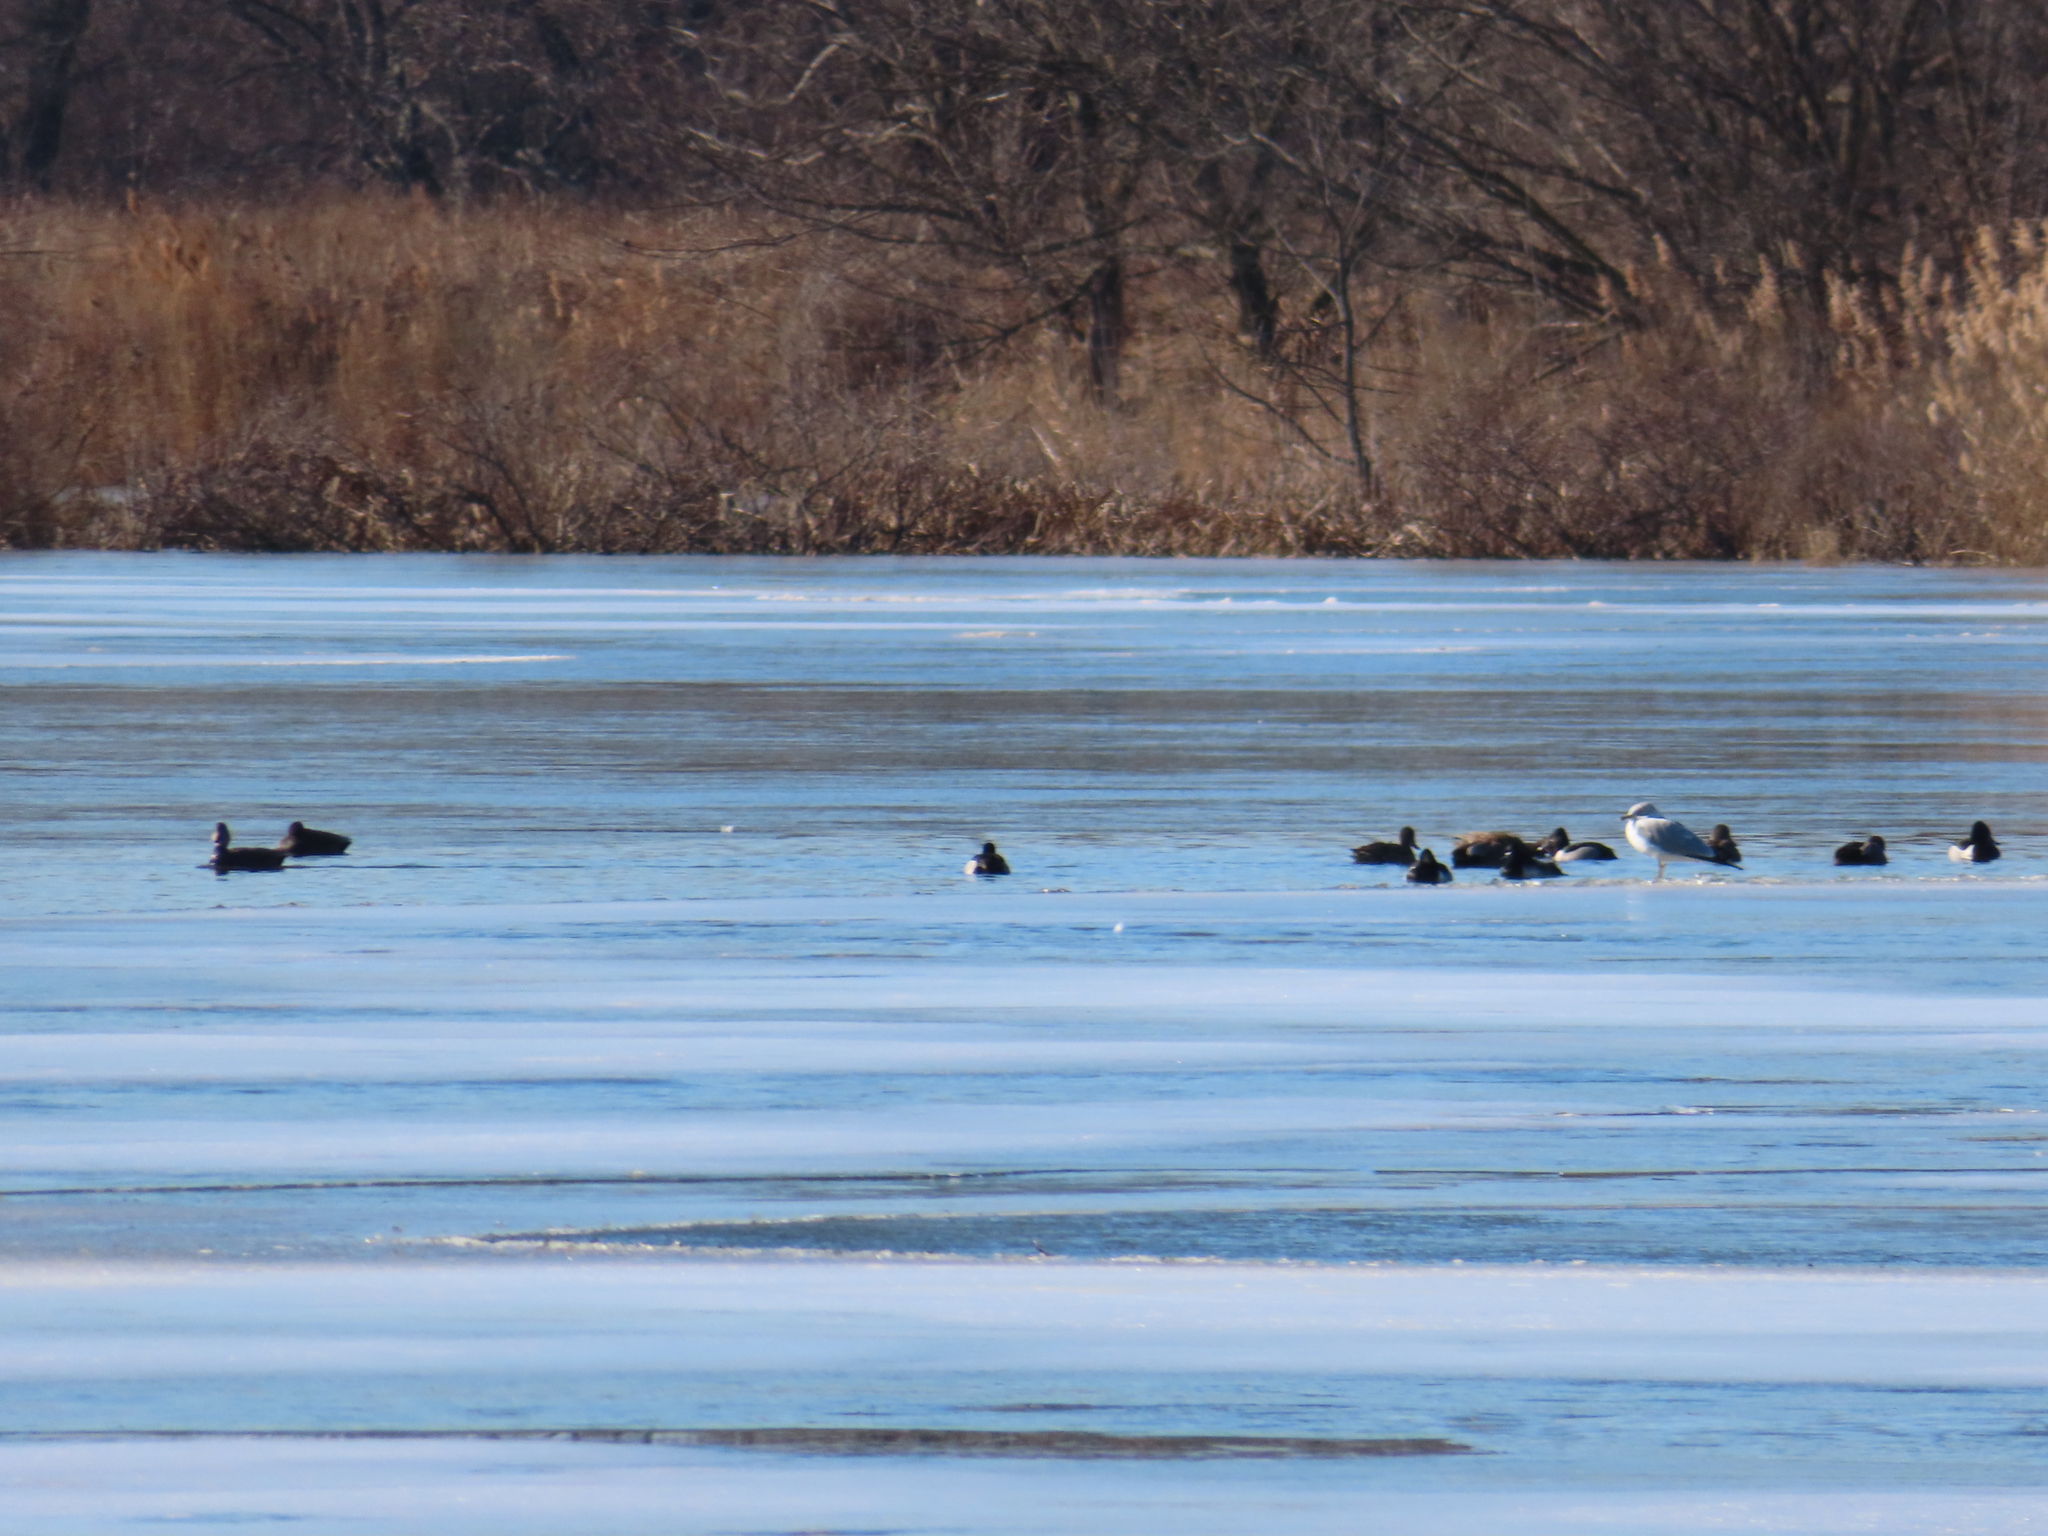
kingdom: Animalia
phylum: Chordata
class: Aves
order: Charadriiformes
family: Laridae
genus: Larus
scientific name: Larus delawarensis
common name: Ring-billed gull
